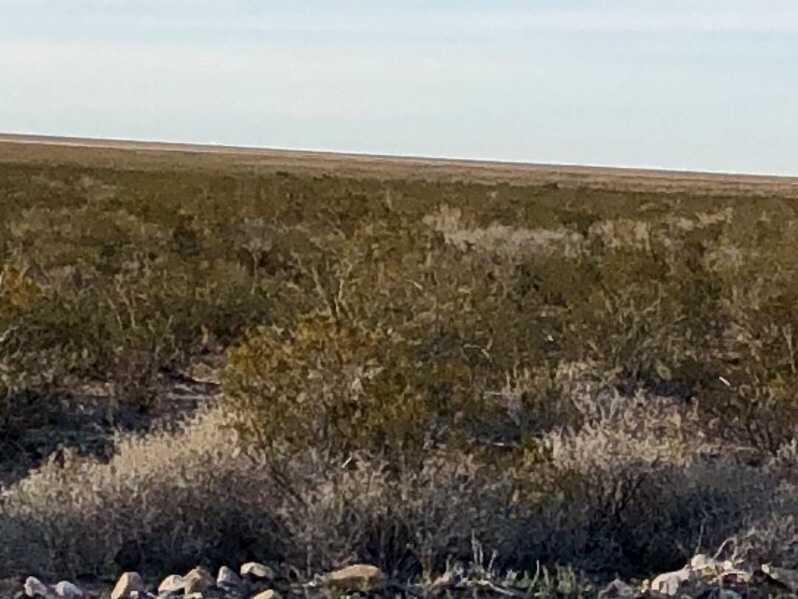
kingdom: Plantae
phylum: Tracheophyta
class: Magnoliopsida
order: Zygophyllales
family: Zygophyllaceae
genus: Larrea
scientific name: Larrea tridentata
